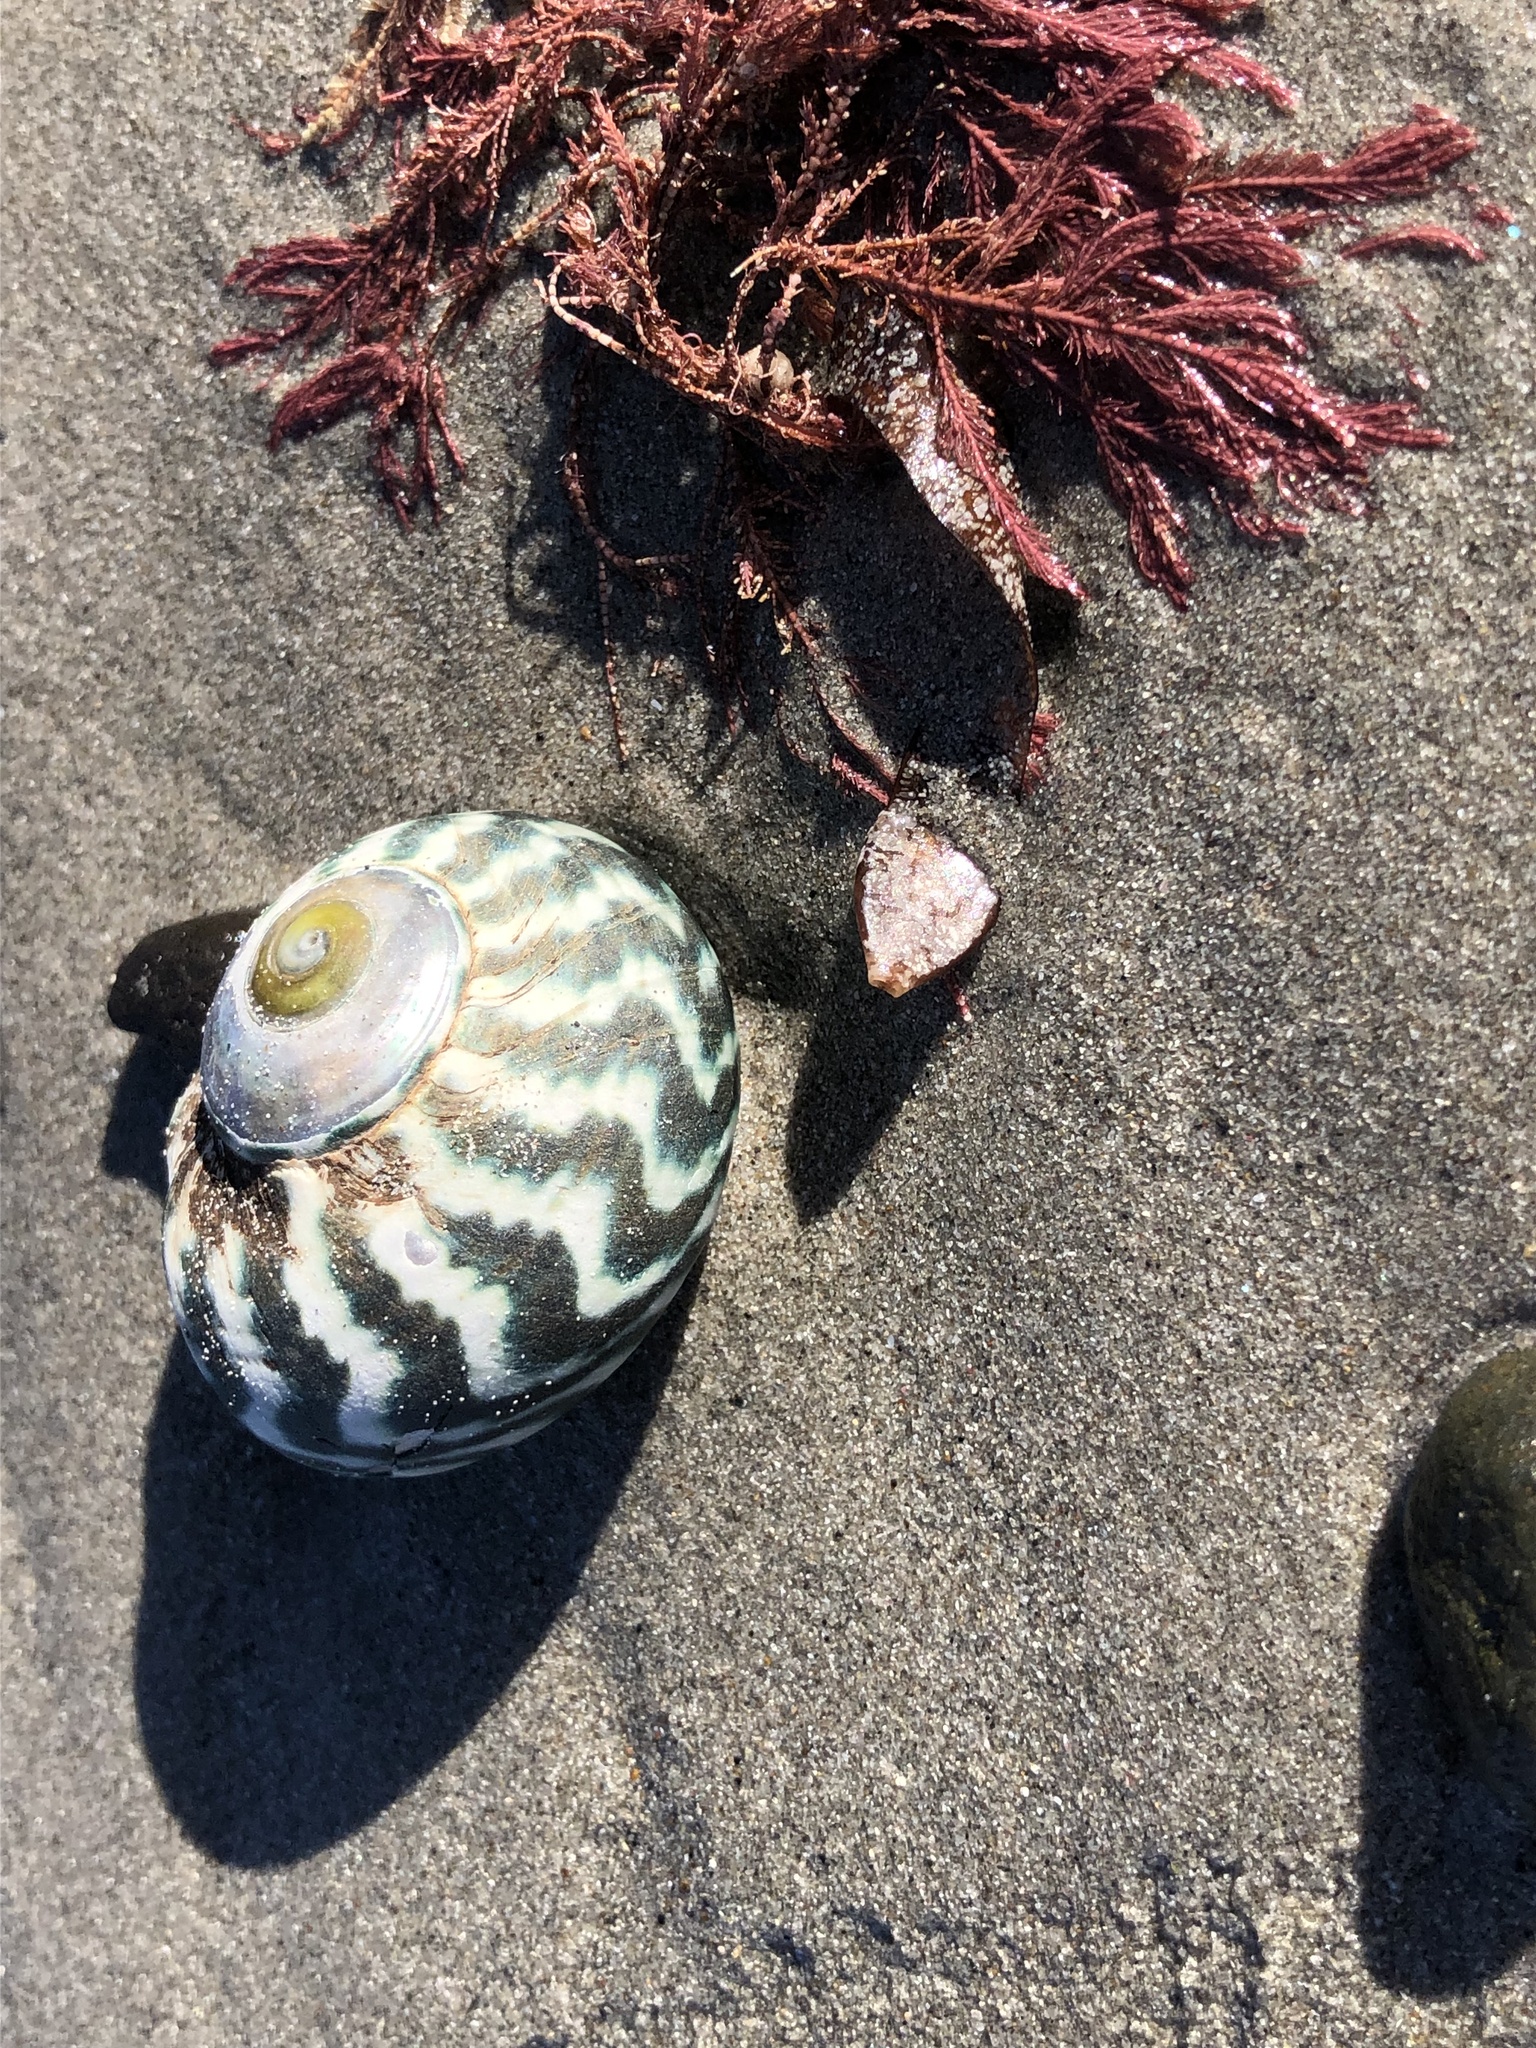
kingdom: Animalia
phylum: Mollusca
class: Gastropoda
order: Trochida
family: Turbinidae
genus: Lunella
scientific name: Lunella undulata
